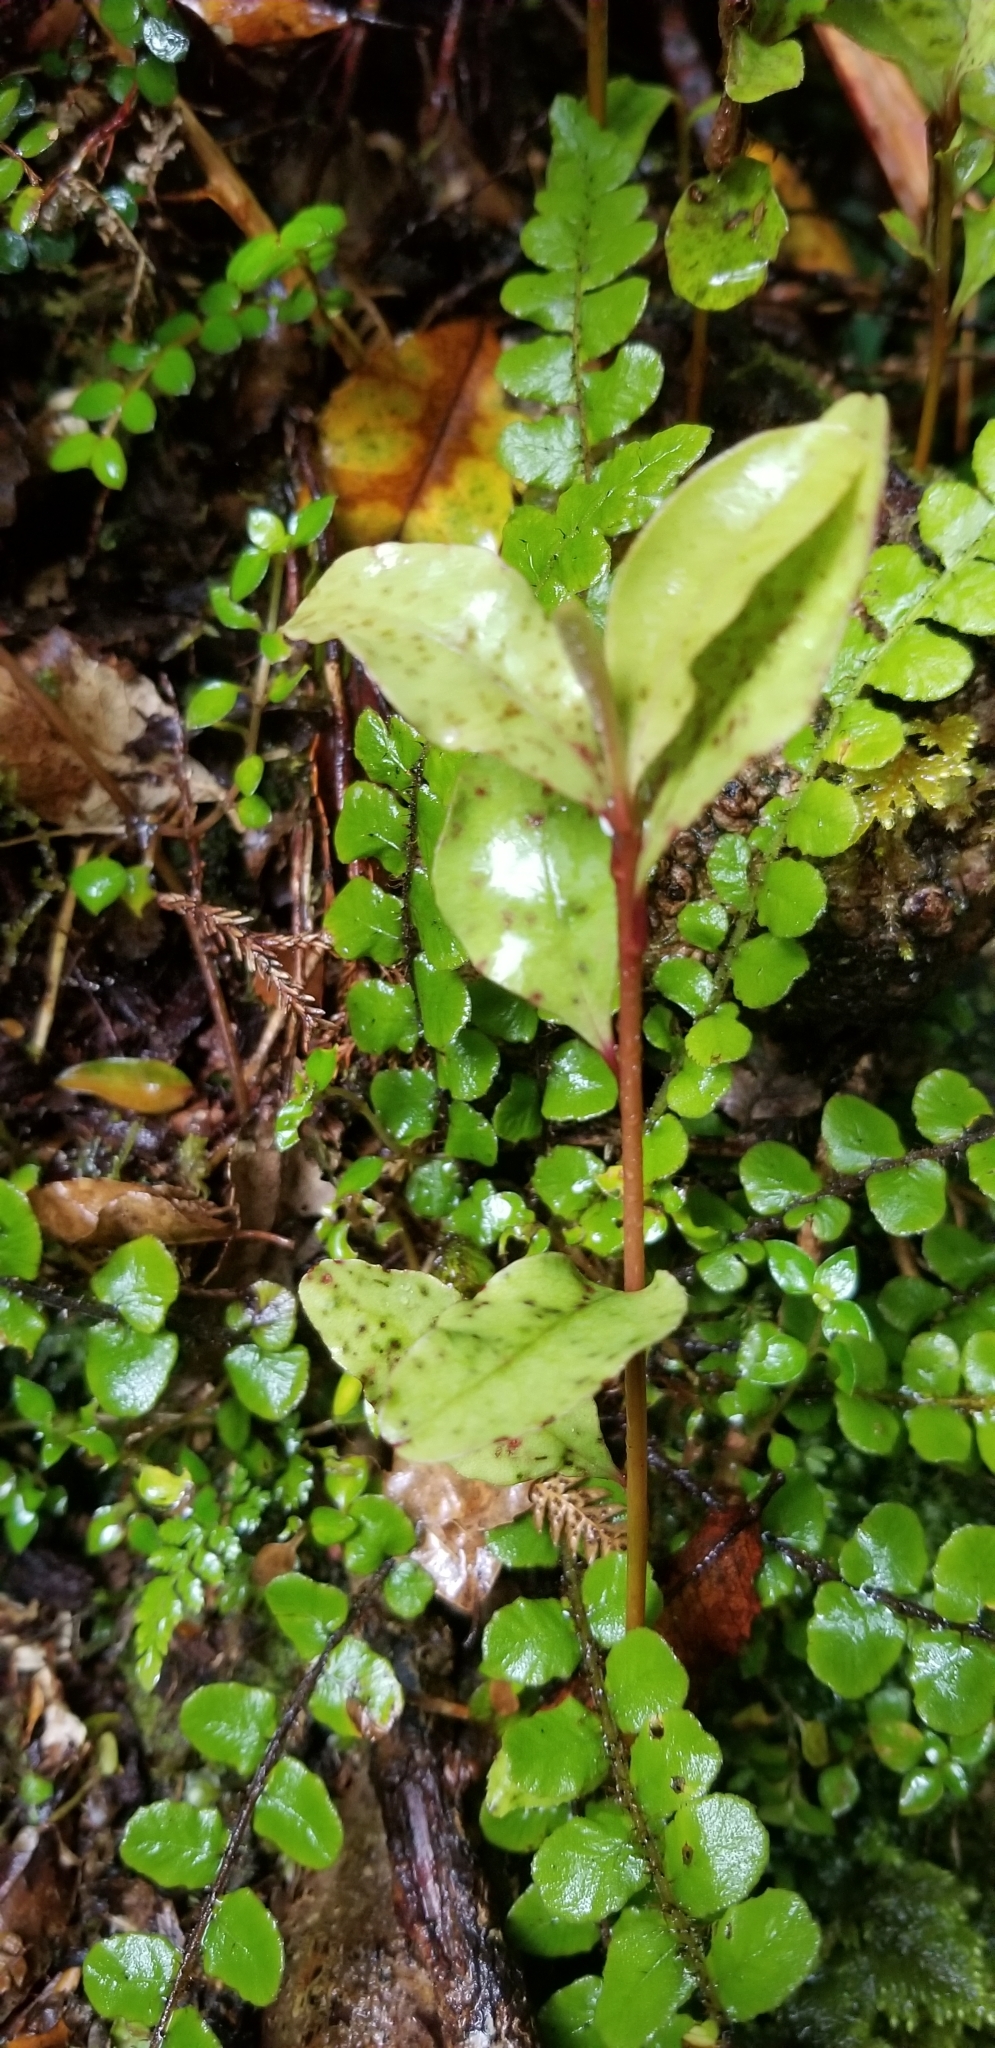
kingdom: Plantae
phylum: Tracheophyta
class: Magnoliopsida
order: Ericales
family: Primulaceae
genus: Myrsine
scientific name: Myrsine australis
